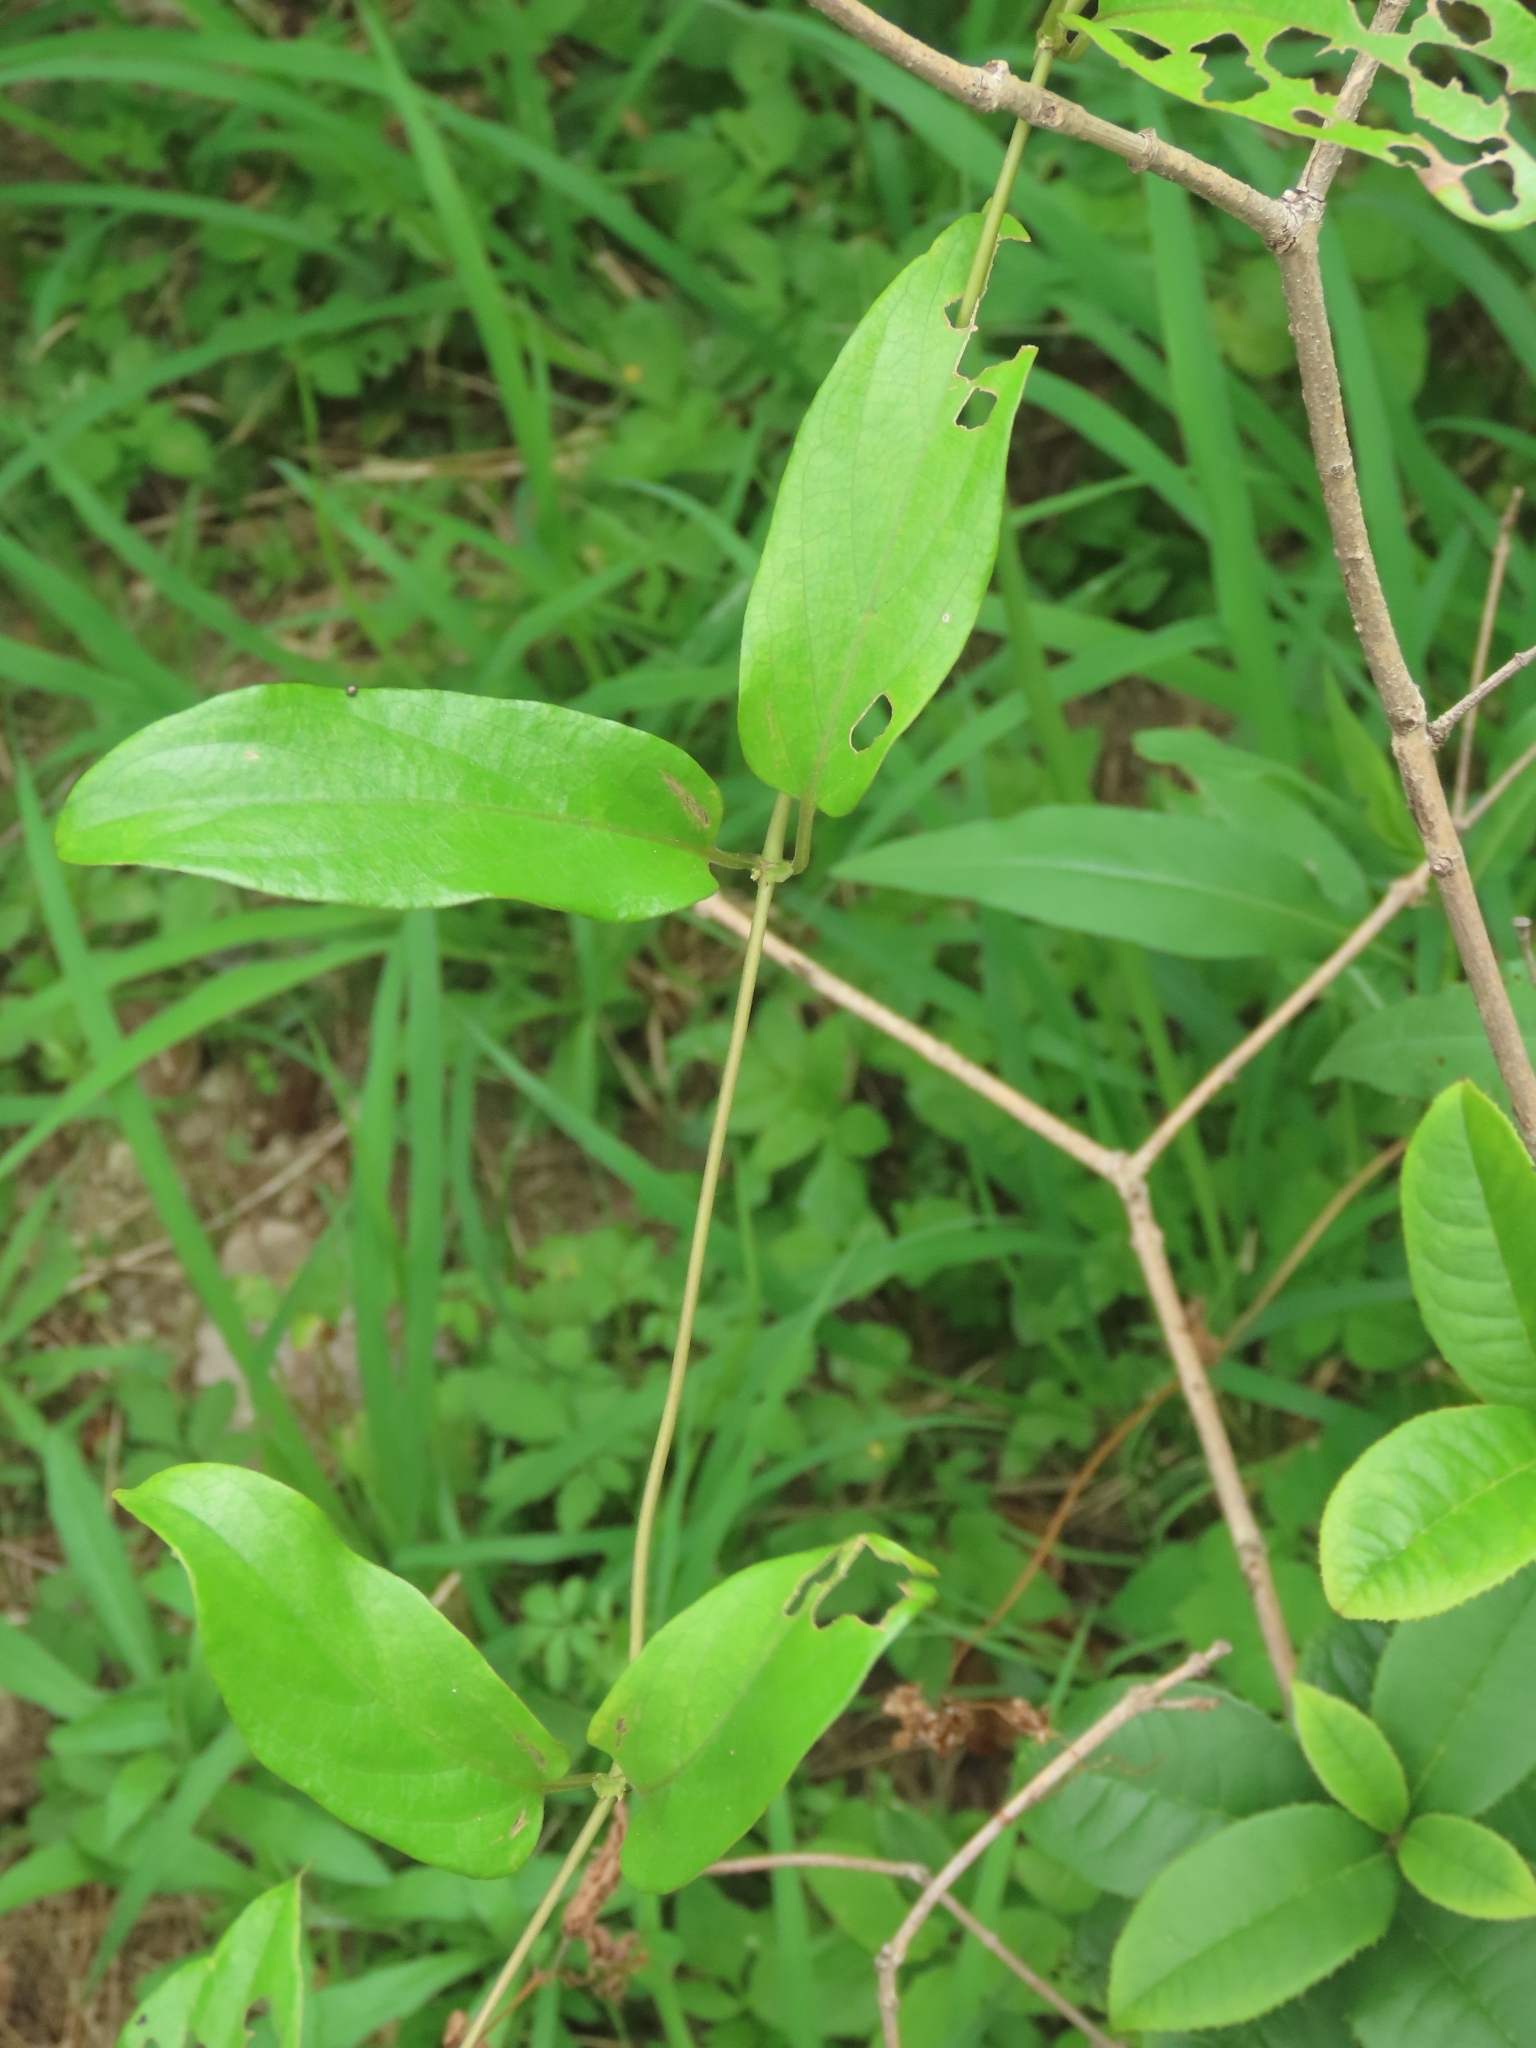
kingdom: Plantae
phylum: Tracheophyta
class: Magnoliopsida
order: Gentianales
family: Rubiaceae
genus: Paederia
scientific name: Paederia foetida
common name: Stinkvine
